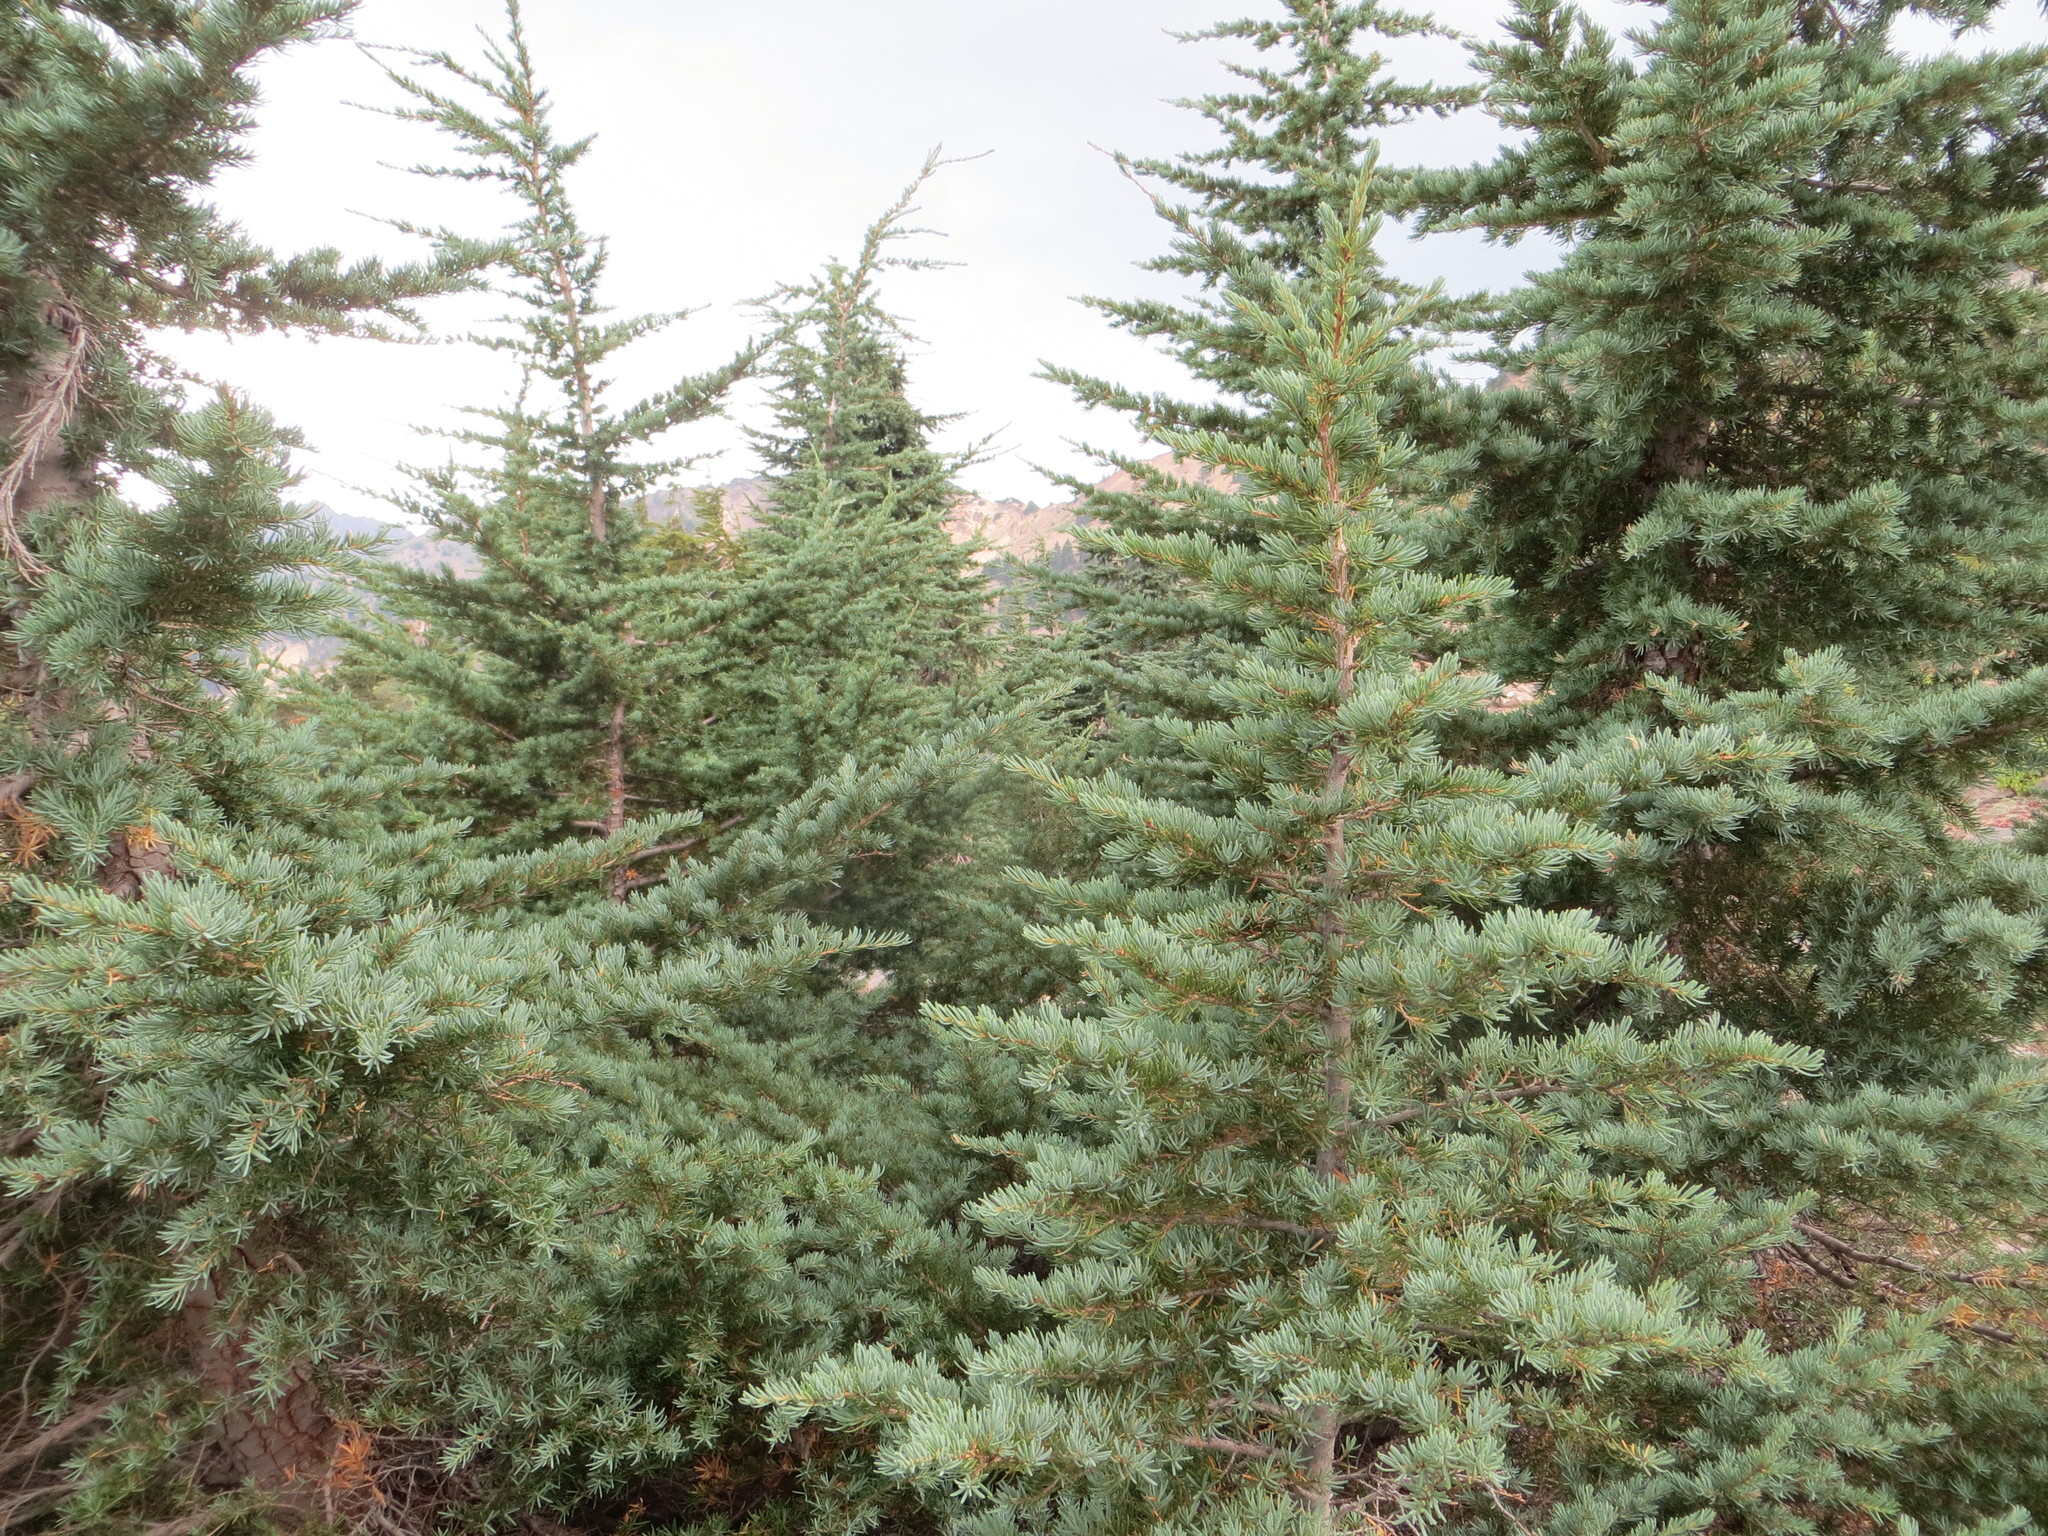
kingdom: Plantae
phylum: Tracheophyta
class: Pinopsida
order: Pinales
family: Pinaceae
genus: Tsuga
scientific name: Tsuga mertensiana
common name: Mountain hemlock
